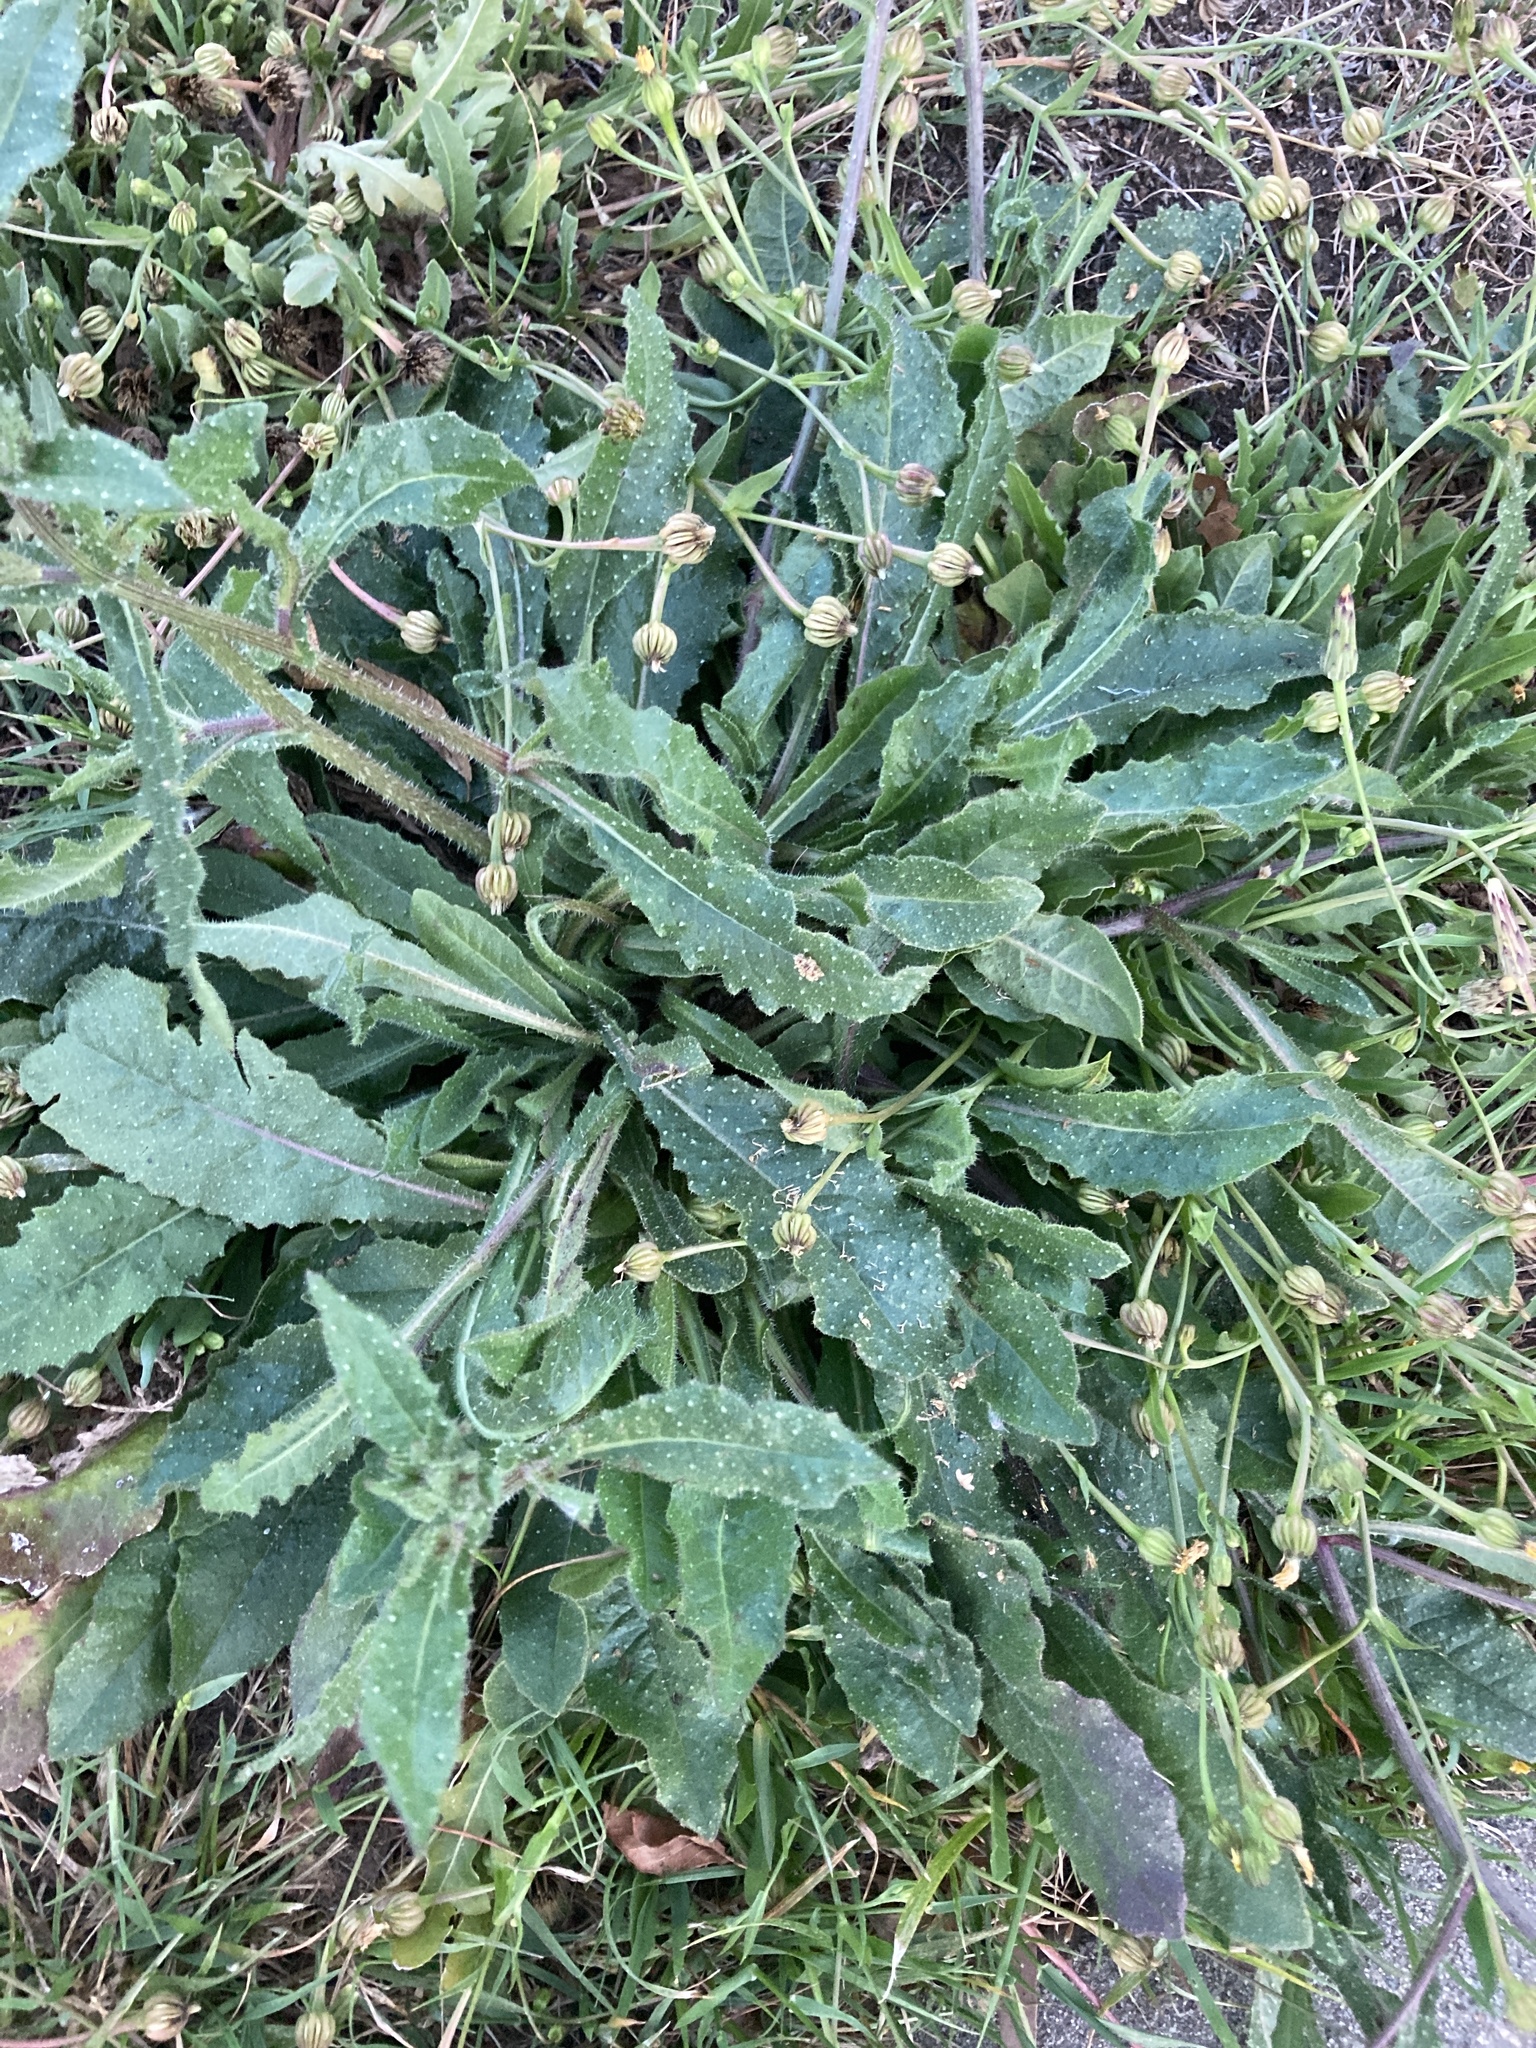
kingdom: Plantae
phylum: Tracheophyta
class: Magnoliopsida
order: Asterales
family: Asteraceae
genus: Helminthotheca
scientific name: Helminthotheca echioides
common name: Ox-tongue
